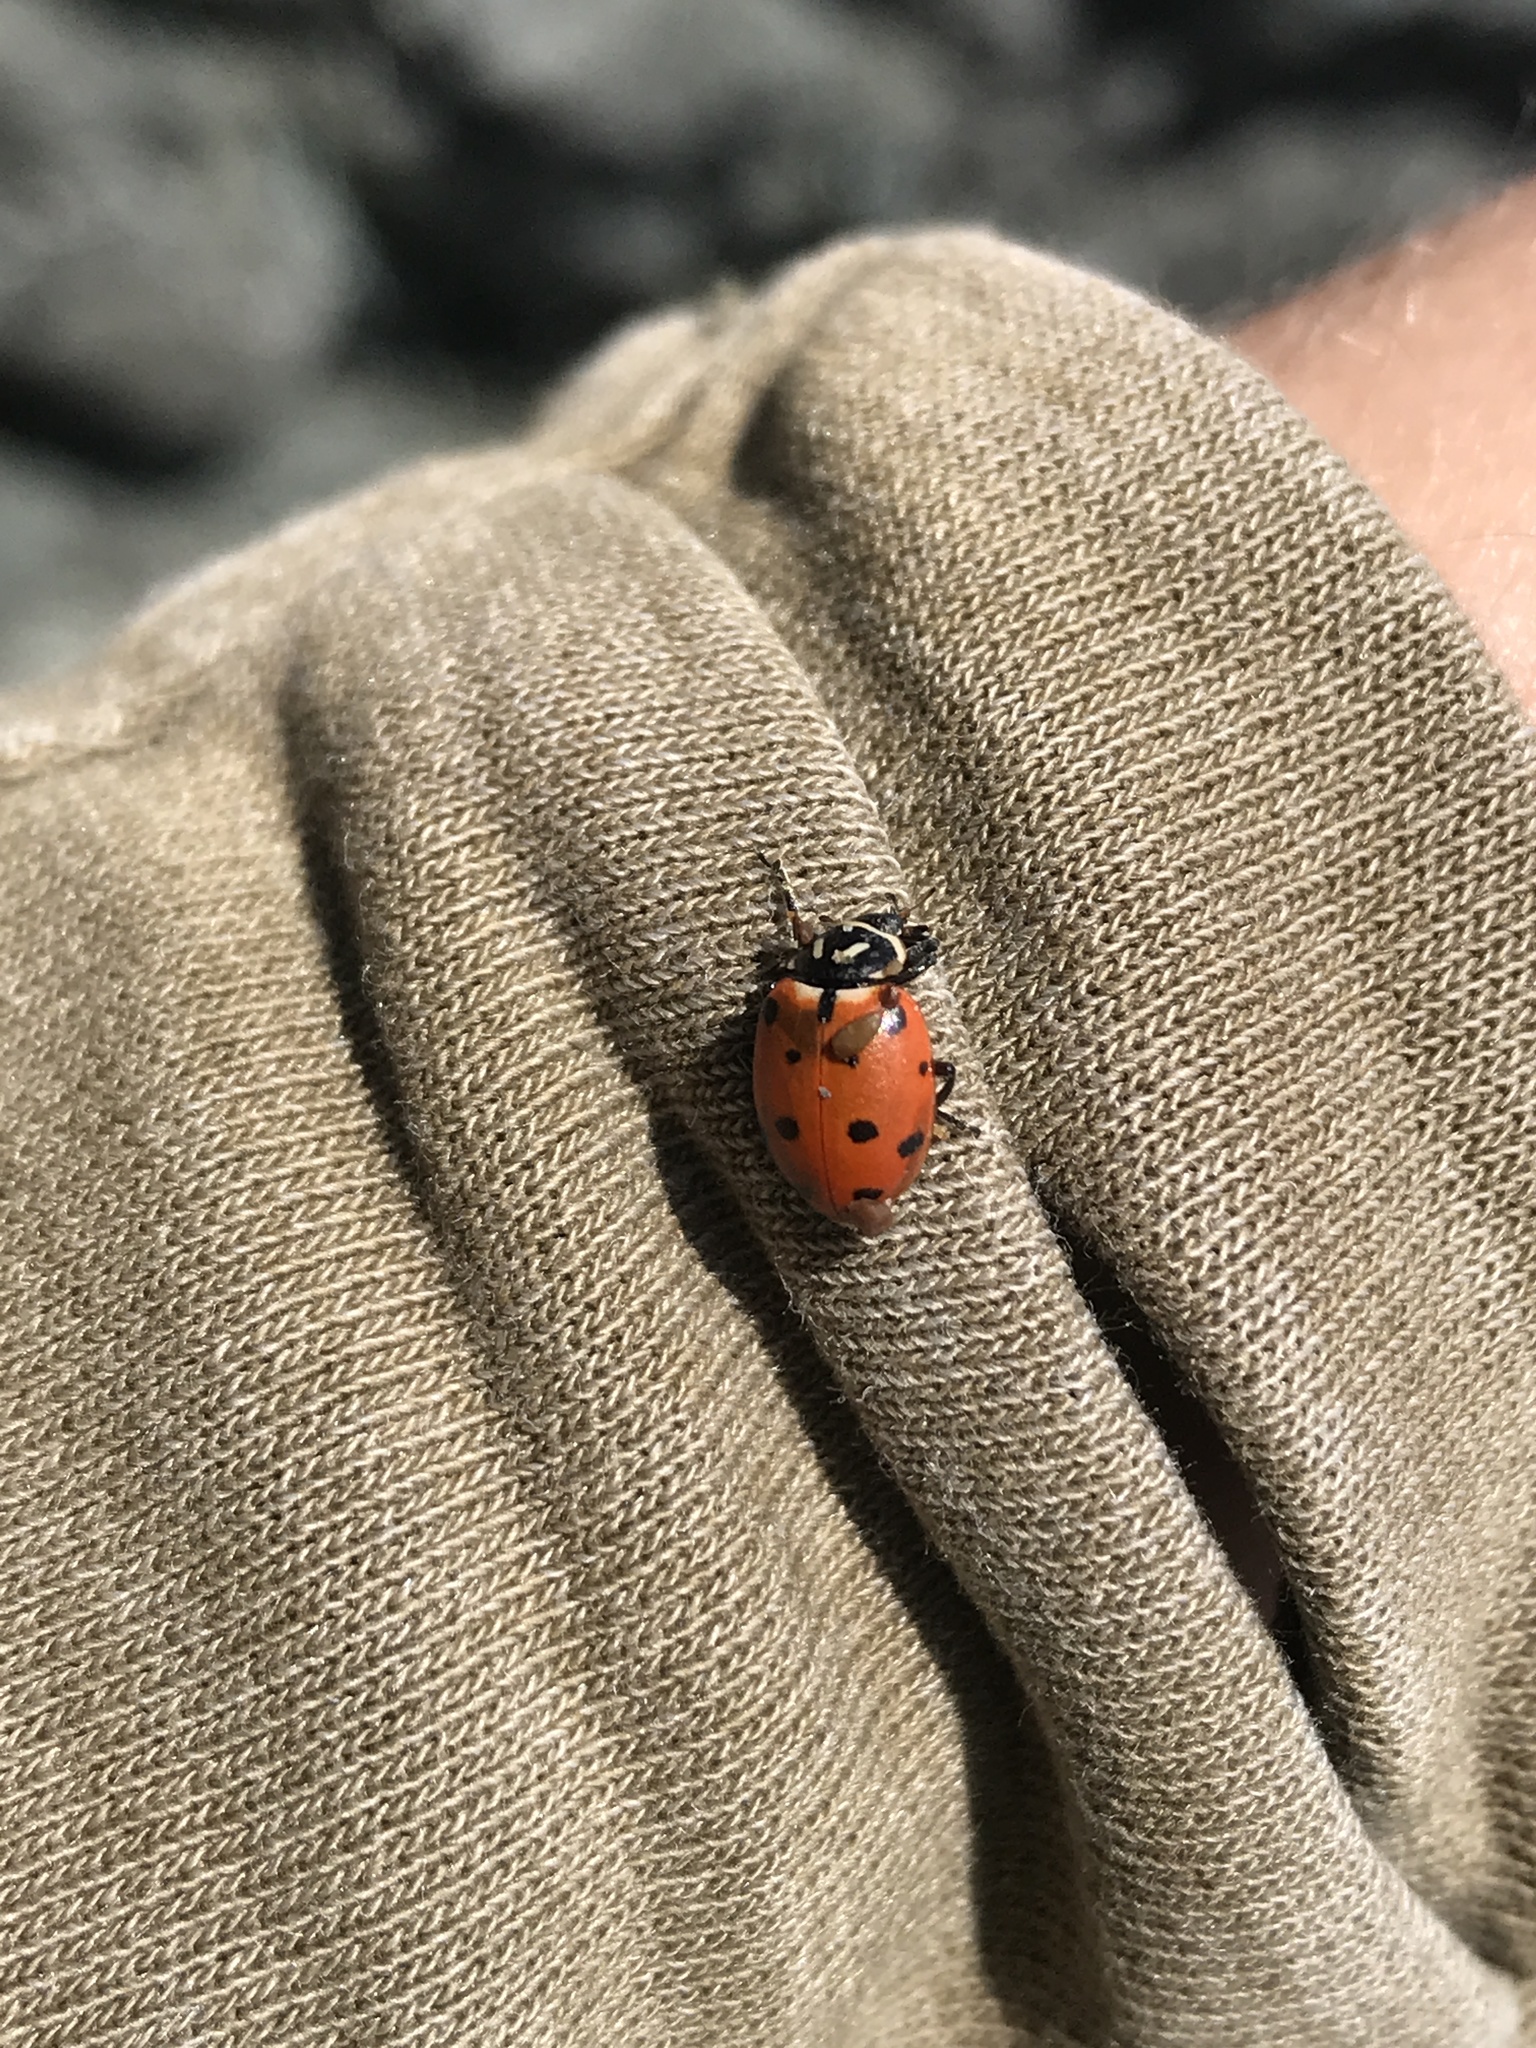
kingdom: Animalia
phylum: Arthropoda
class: Insecta
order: Coleoptera
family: Coccinellidae
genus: Hippodamia
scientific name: Hippodamia convergens
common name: Convergent lady beetle
